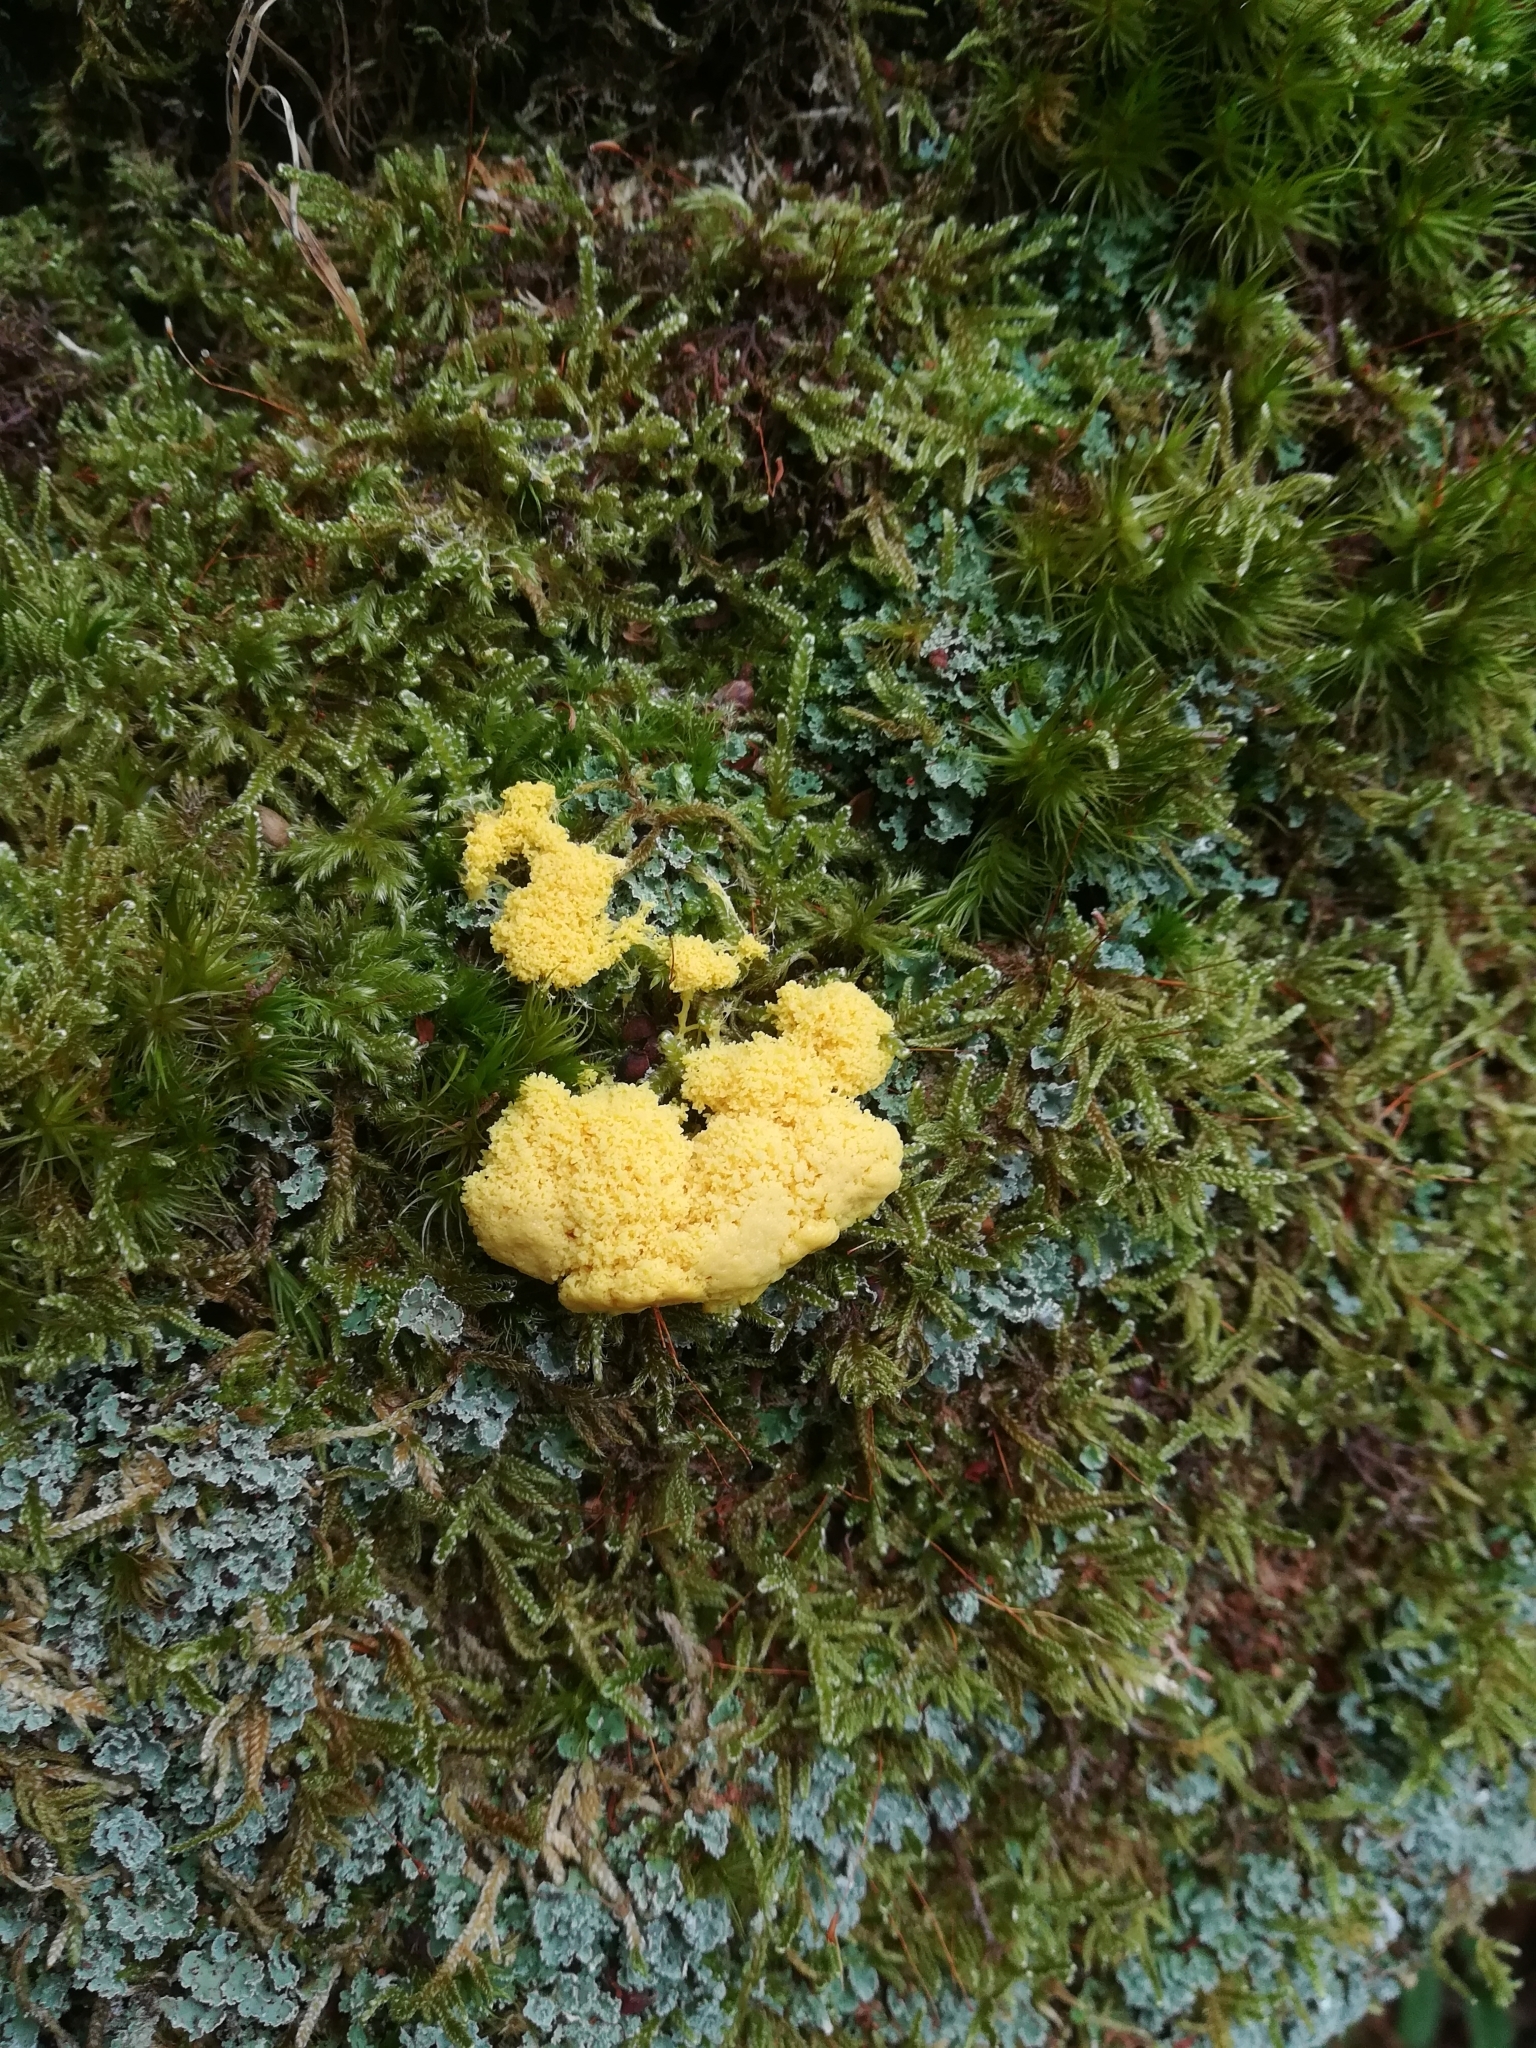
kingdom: Protozoa
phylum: Mycetozoa
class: Myxomycetes
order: Physarales
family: Physaraceae
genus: Fuligo
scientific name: Fuligo septica
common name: Dog vomit slime mold
